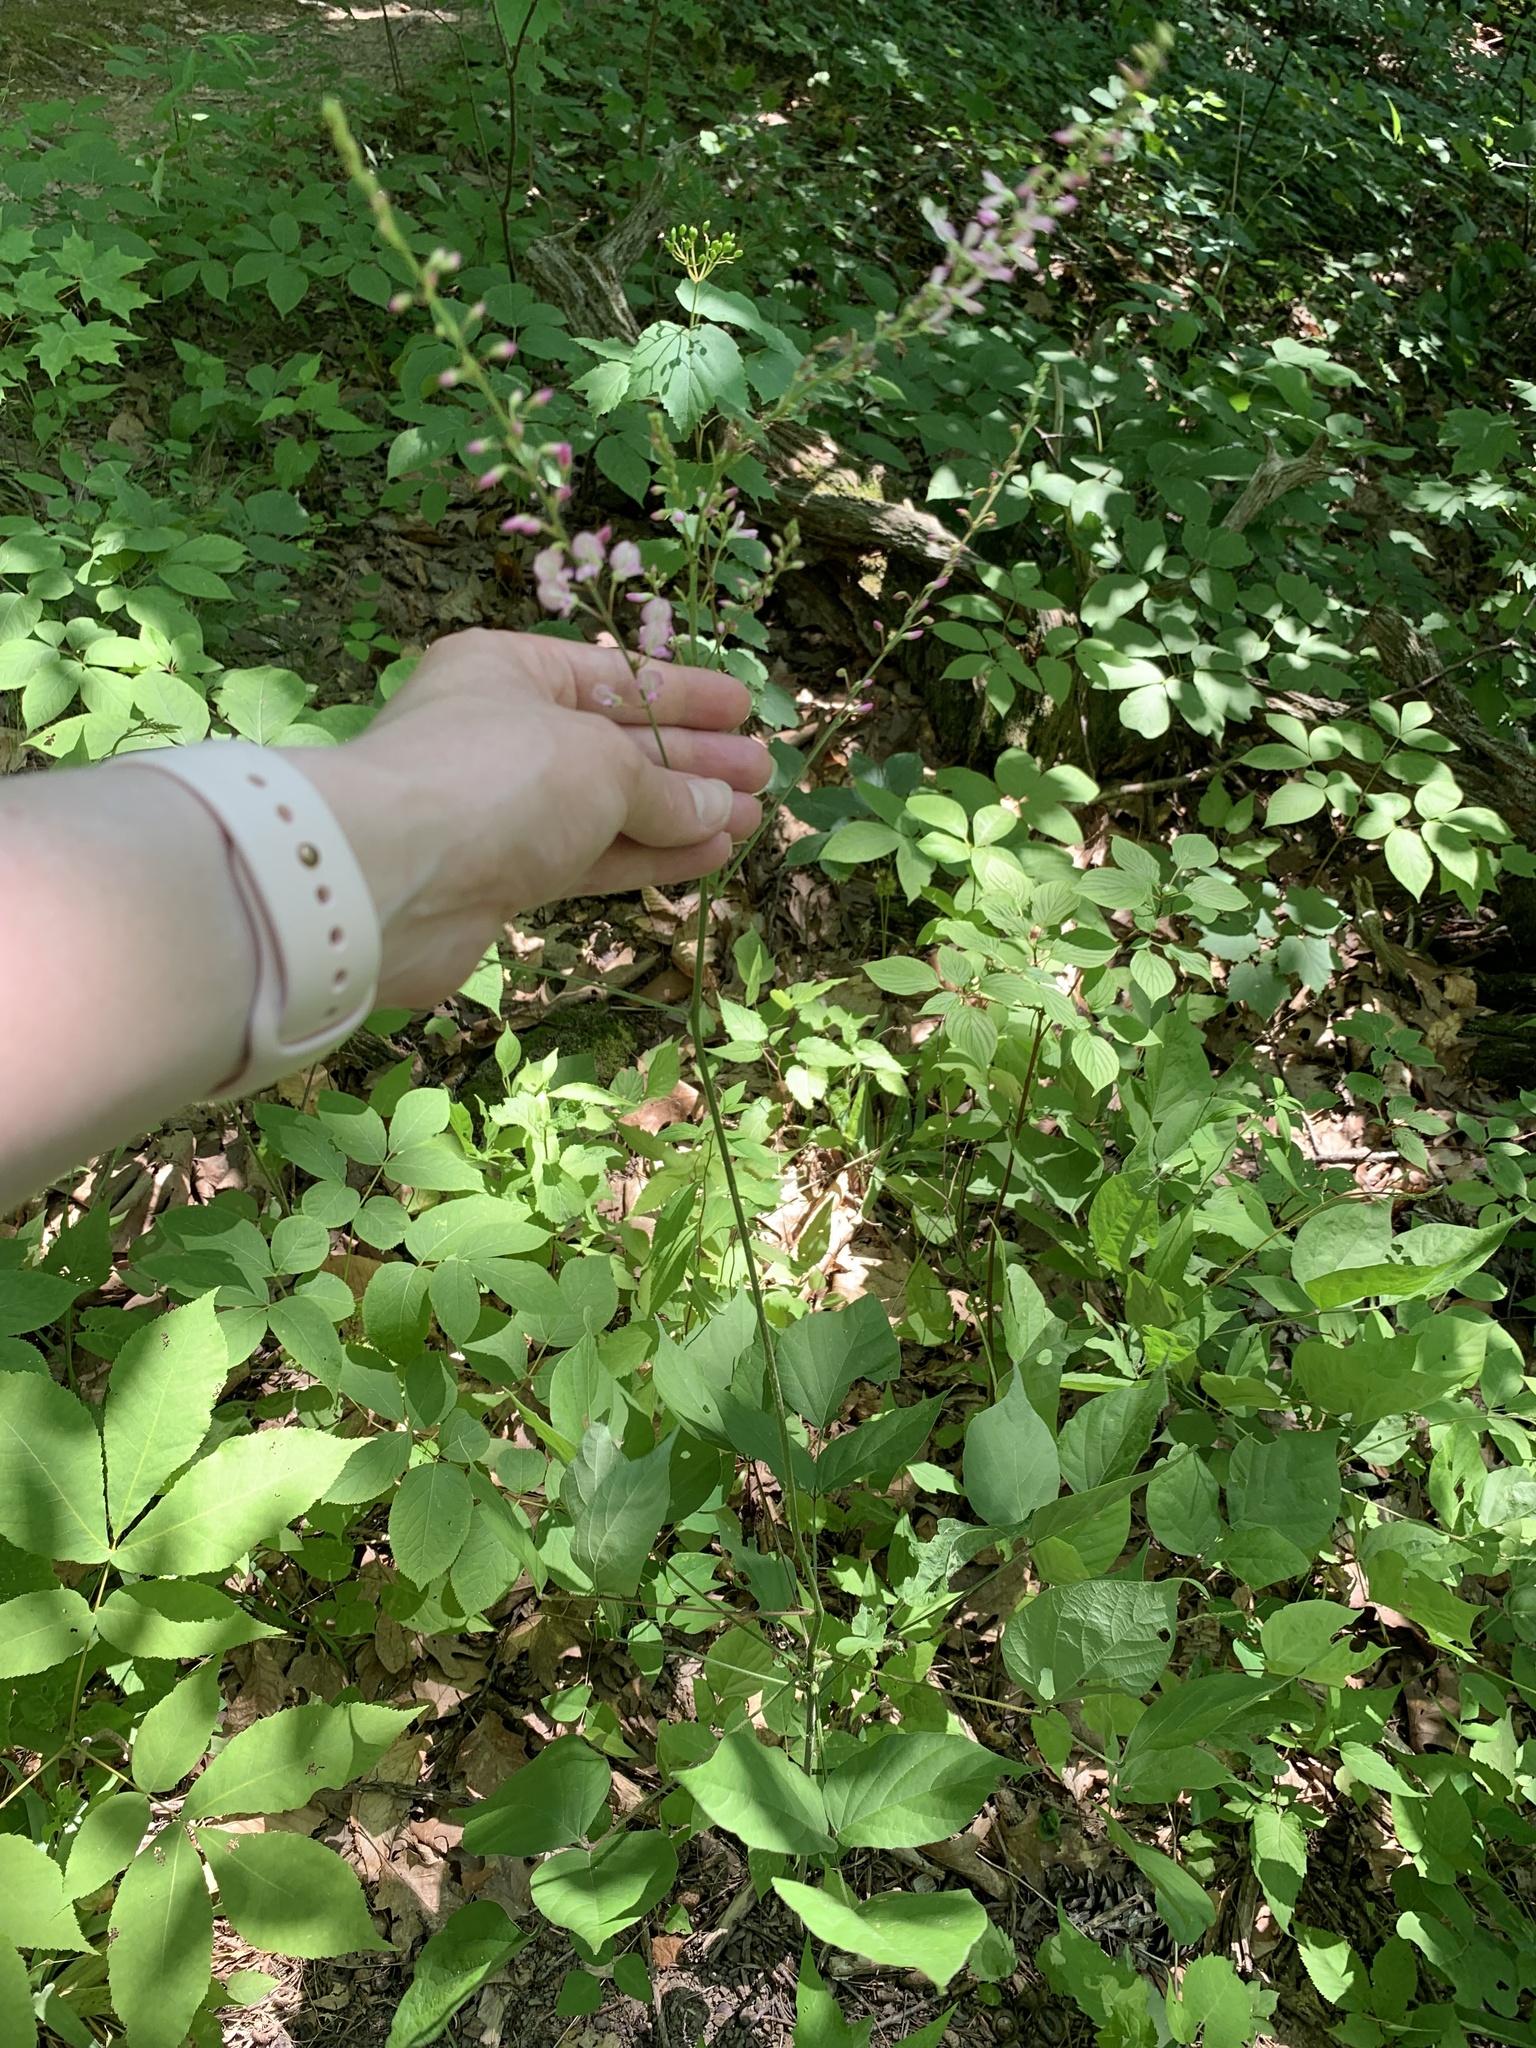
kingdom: Plantae
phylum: Tracheophyta
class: Magnoliopsida
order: Fabales
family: Fabaceae
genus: Hylodesmum
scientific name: Hylodesmum glutinosum
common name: Clustered-leaved tick-trefoil
